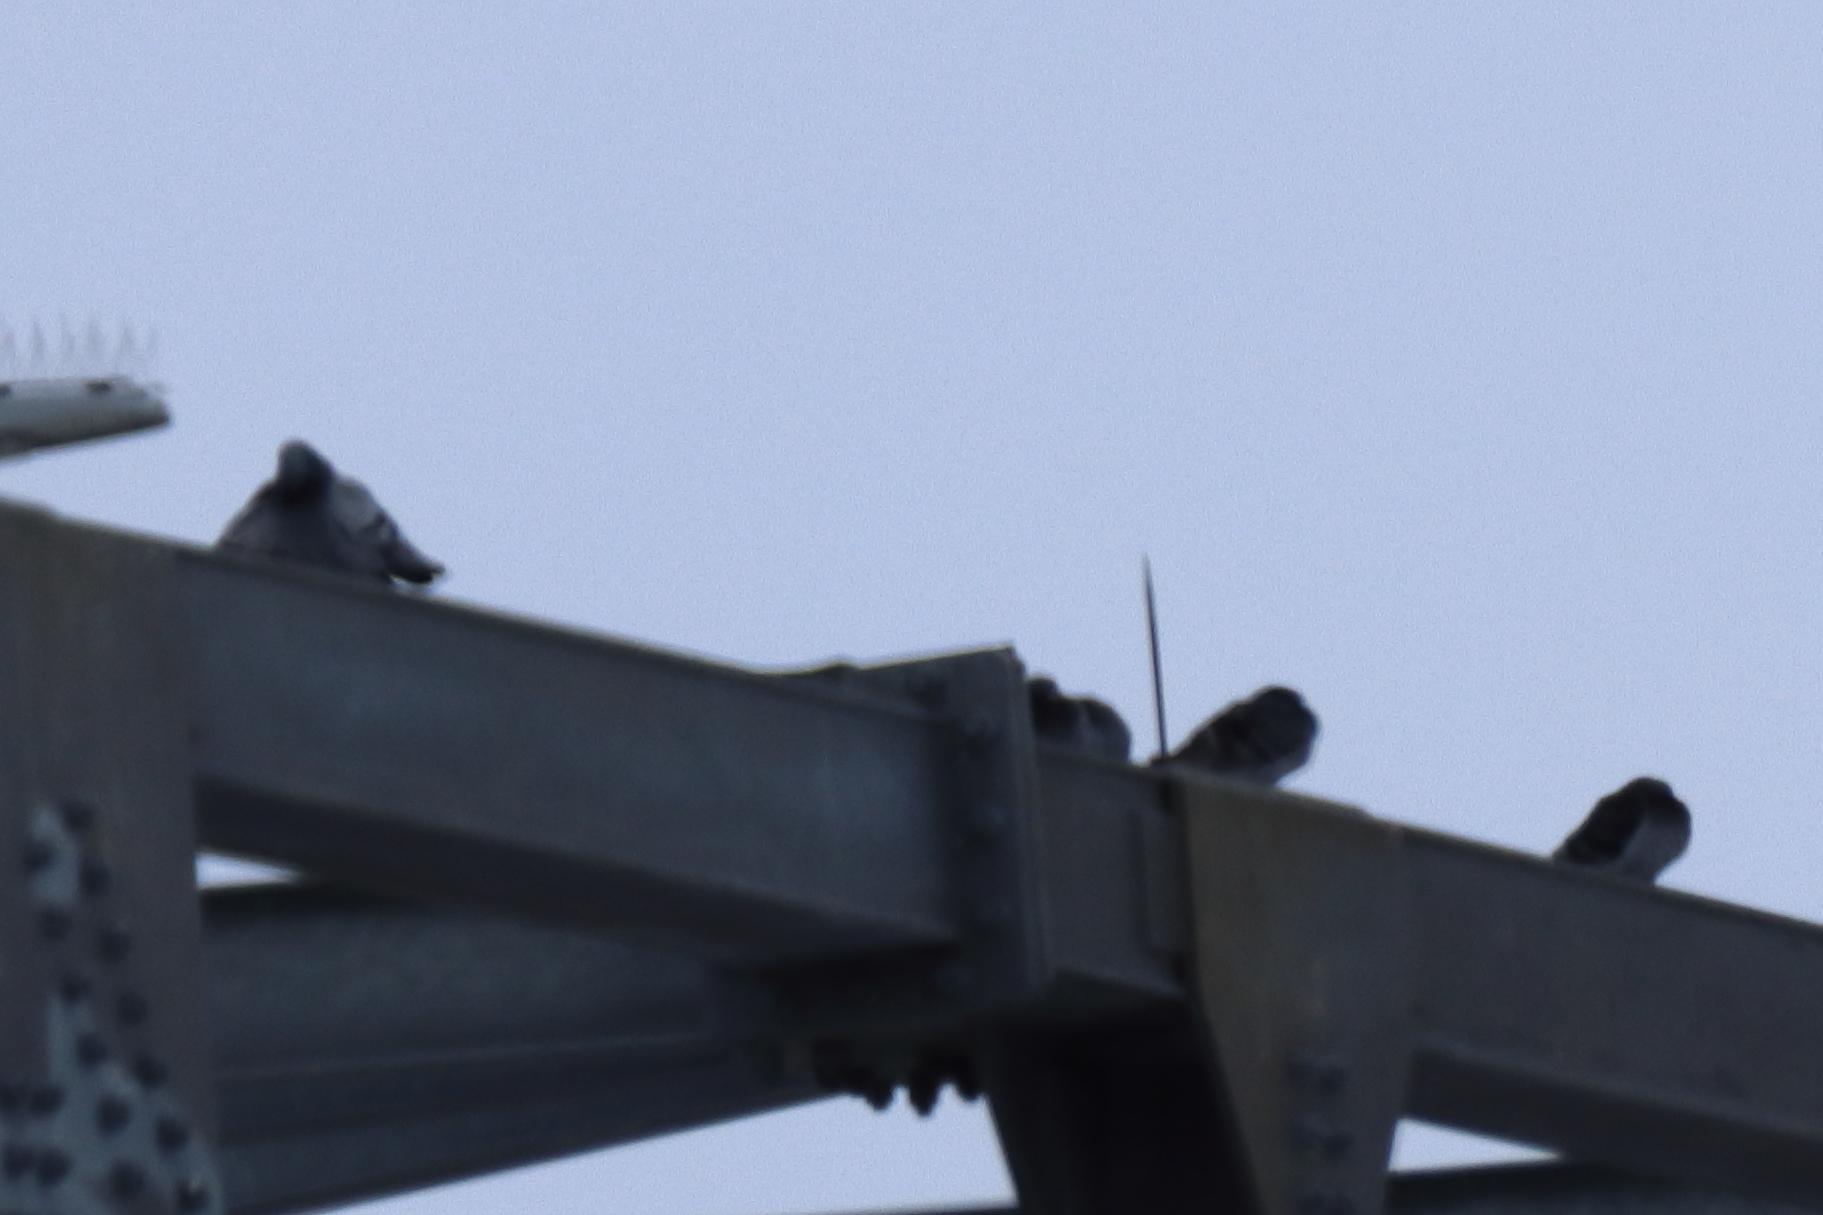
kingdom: Animalia
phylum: Chordata
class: Aves
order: Columbiformes
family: Columbidae
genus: Columba
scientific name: Columba livia
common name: Rock pigeon
